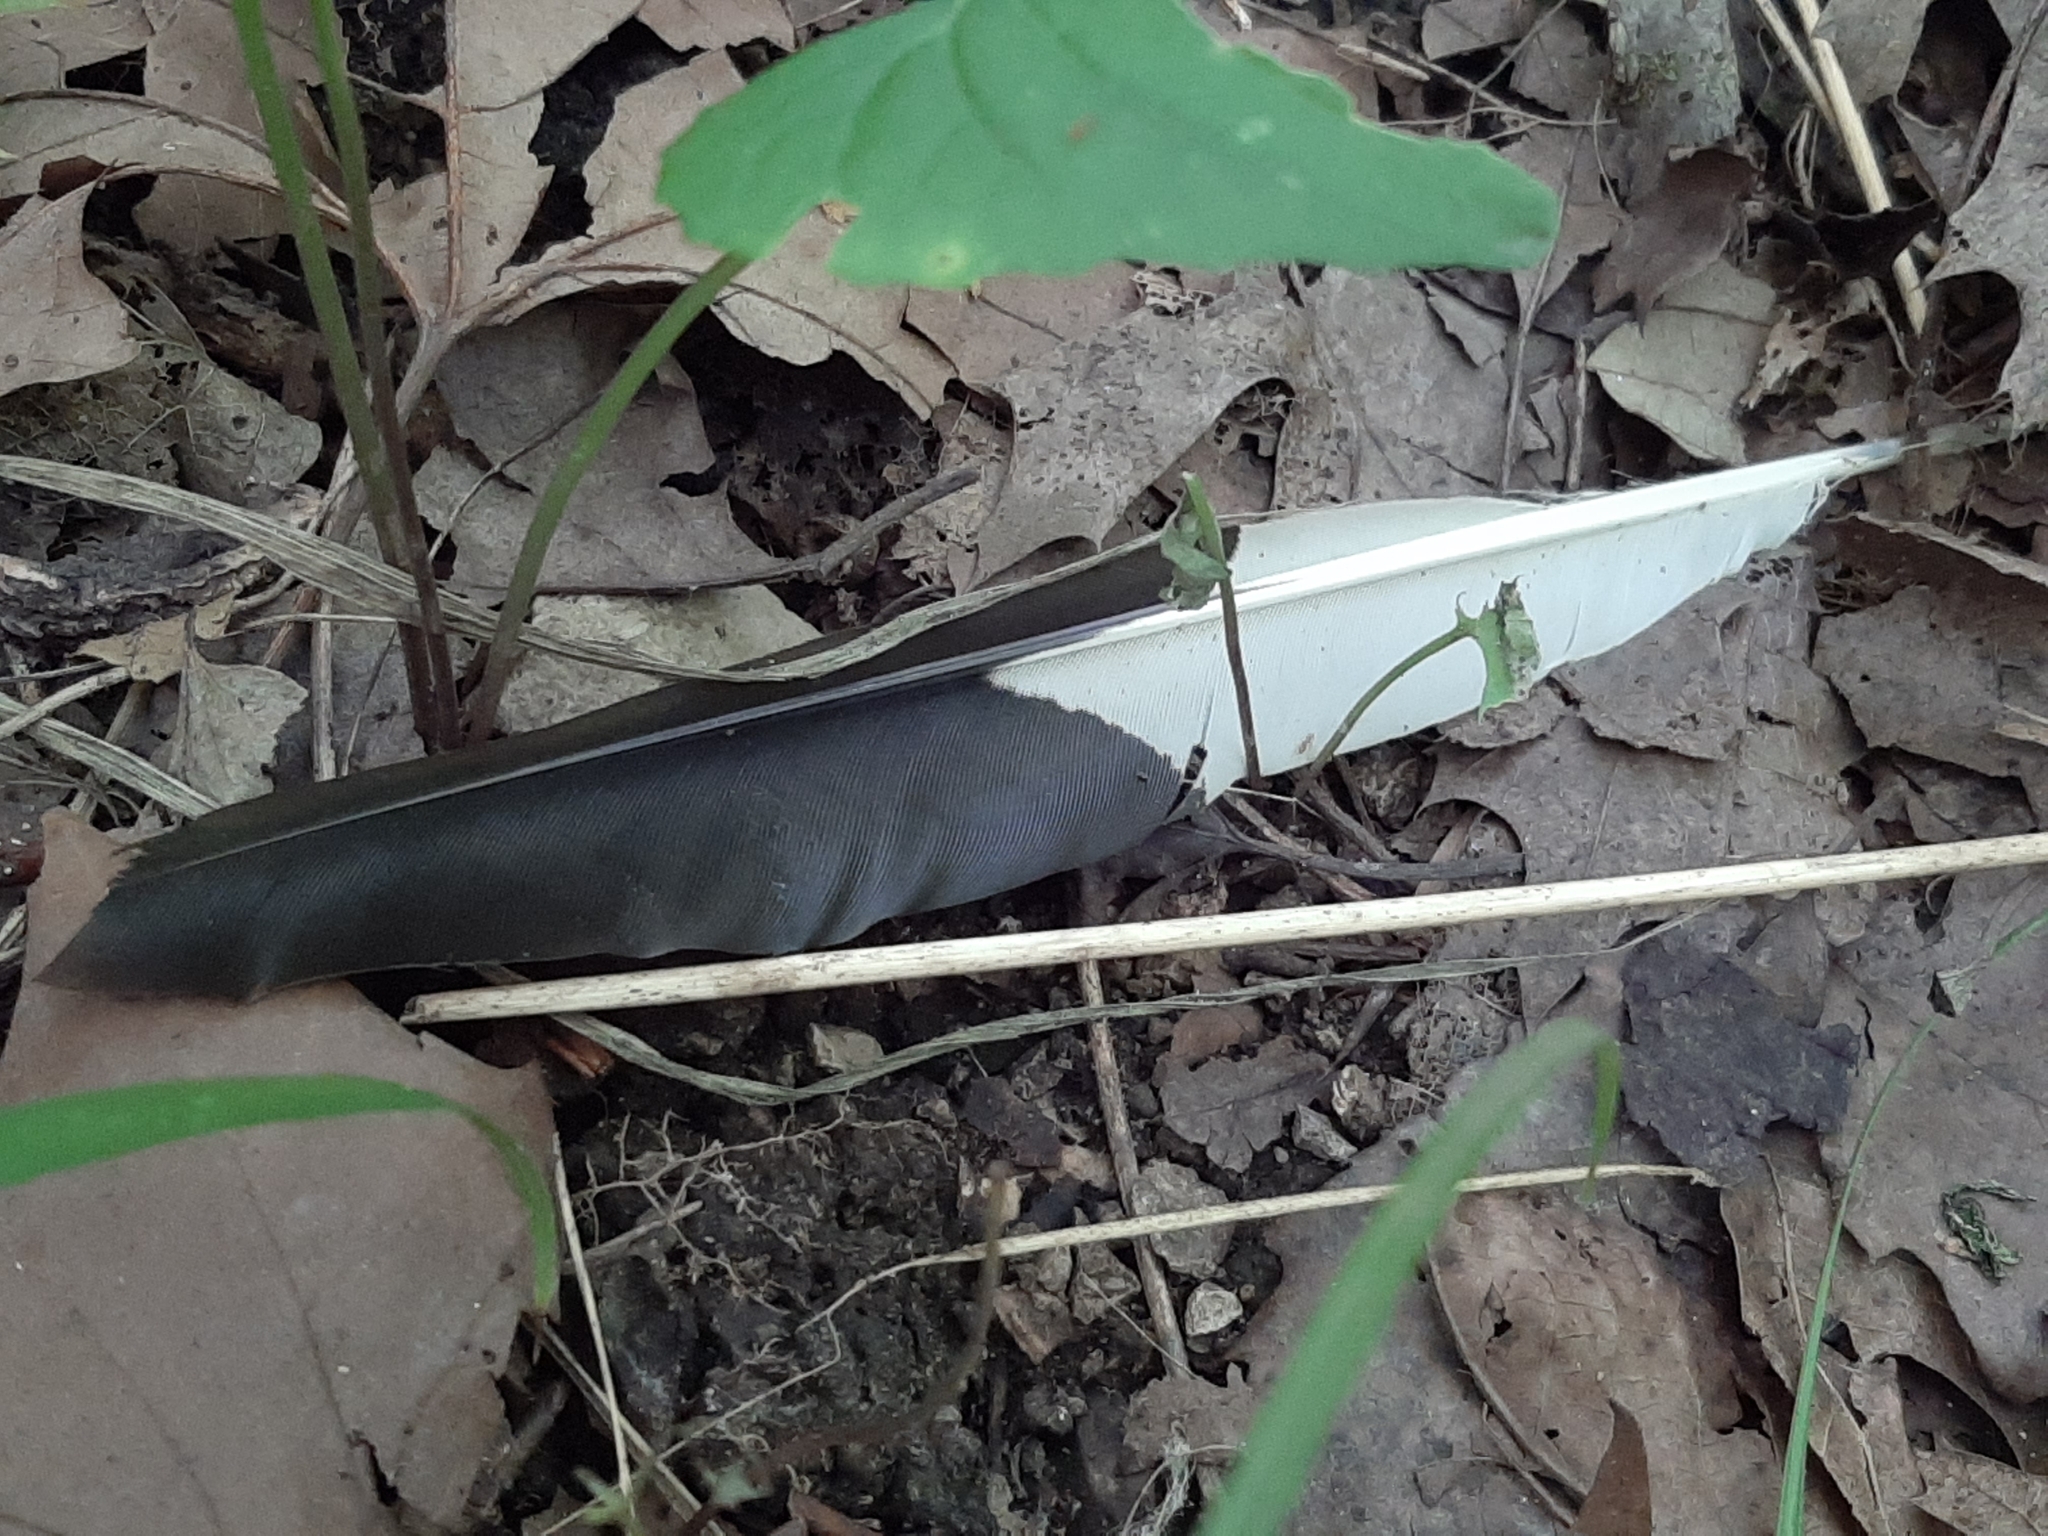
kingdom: Animalia
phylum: Chordata
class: Aves
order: Piciformes
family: Picidae
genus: Dryocopus
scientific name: Dryocopus pileatus
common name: Pileated woodpecker
